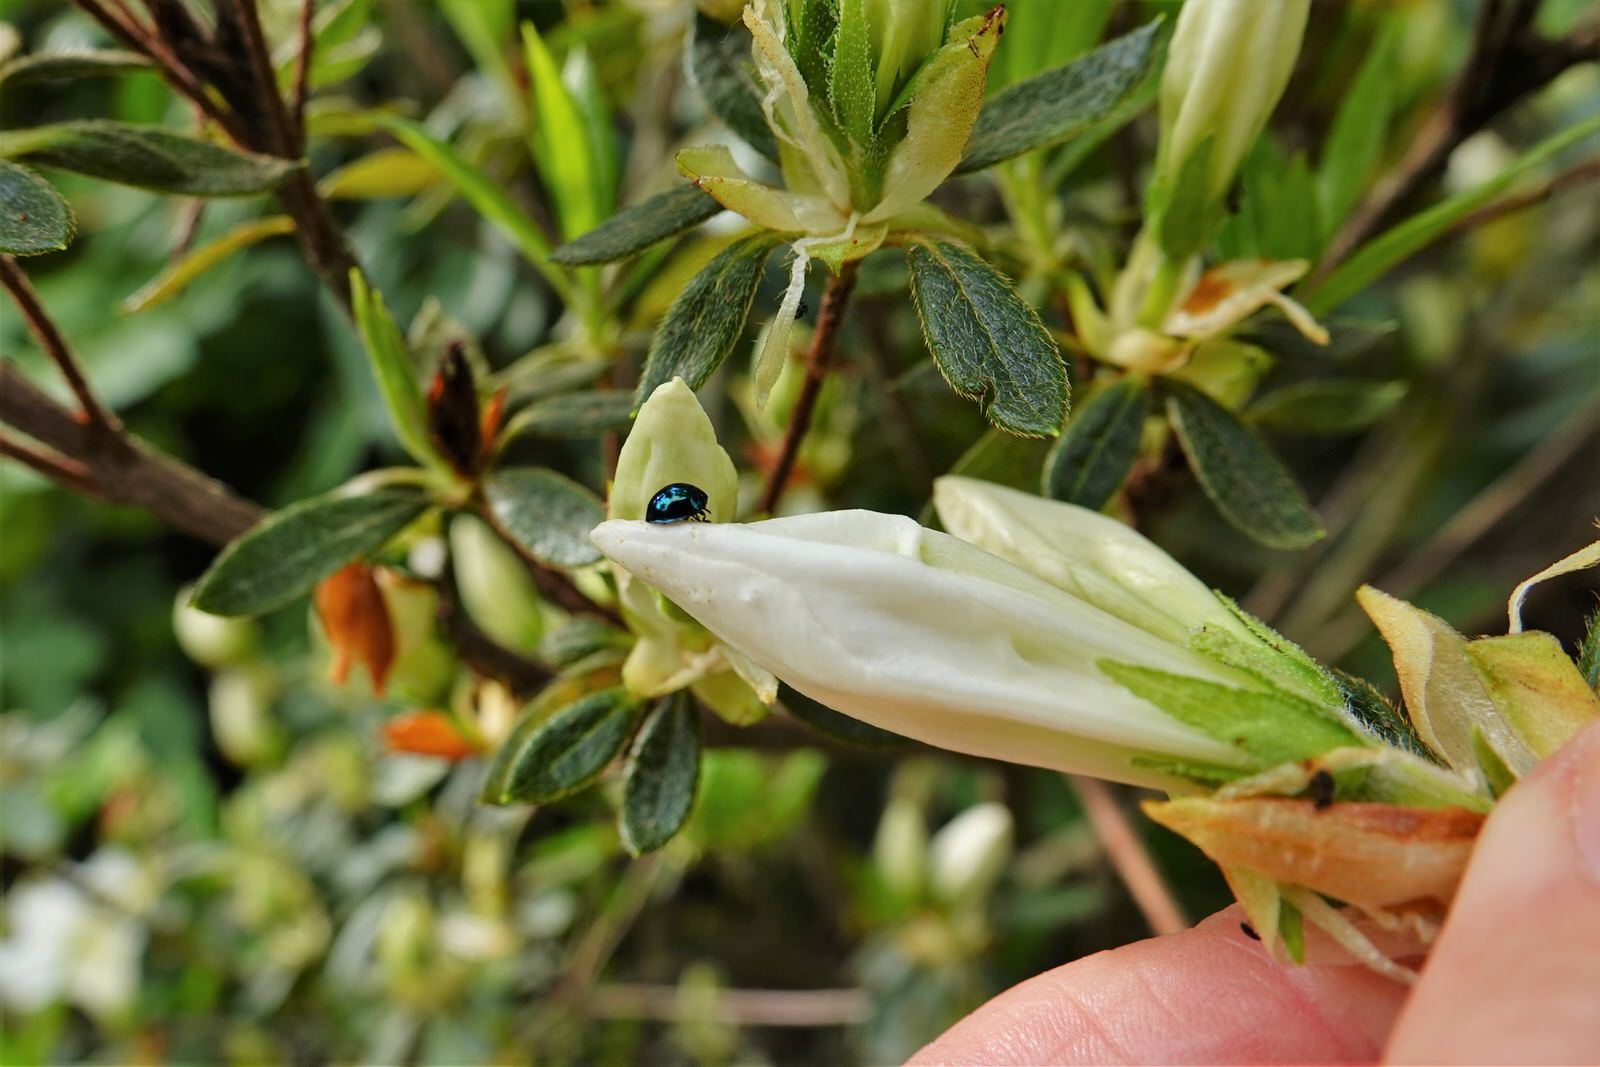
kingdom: Animalia
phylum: Arthropoda
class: Insecta
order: Coleoptera
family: Coccinellidae
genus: Halmus
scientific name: Halmus chalybeus
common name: Steel blue ladybird beetle
